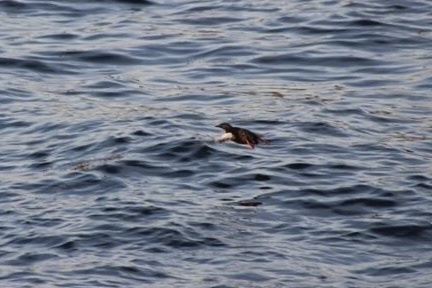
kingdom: Animalia
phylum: Chordata
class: Aves
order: Charadriiformes
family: Alcidae
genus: Cepphus
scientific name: Cepphus grylle
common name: Black guillemot
